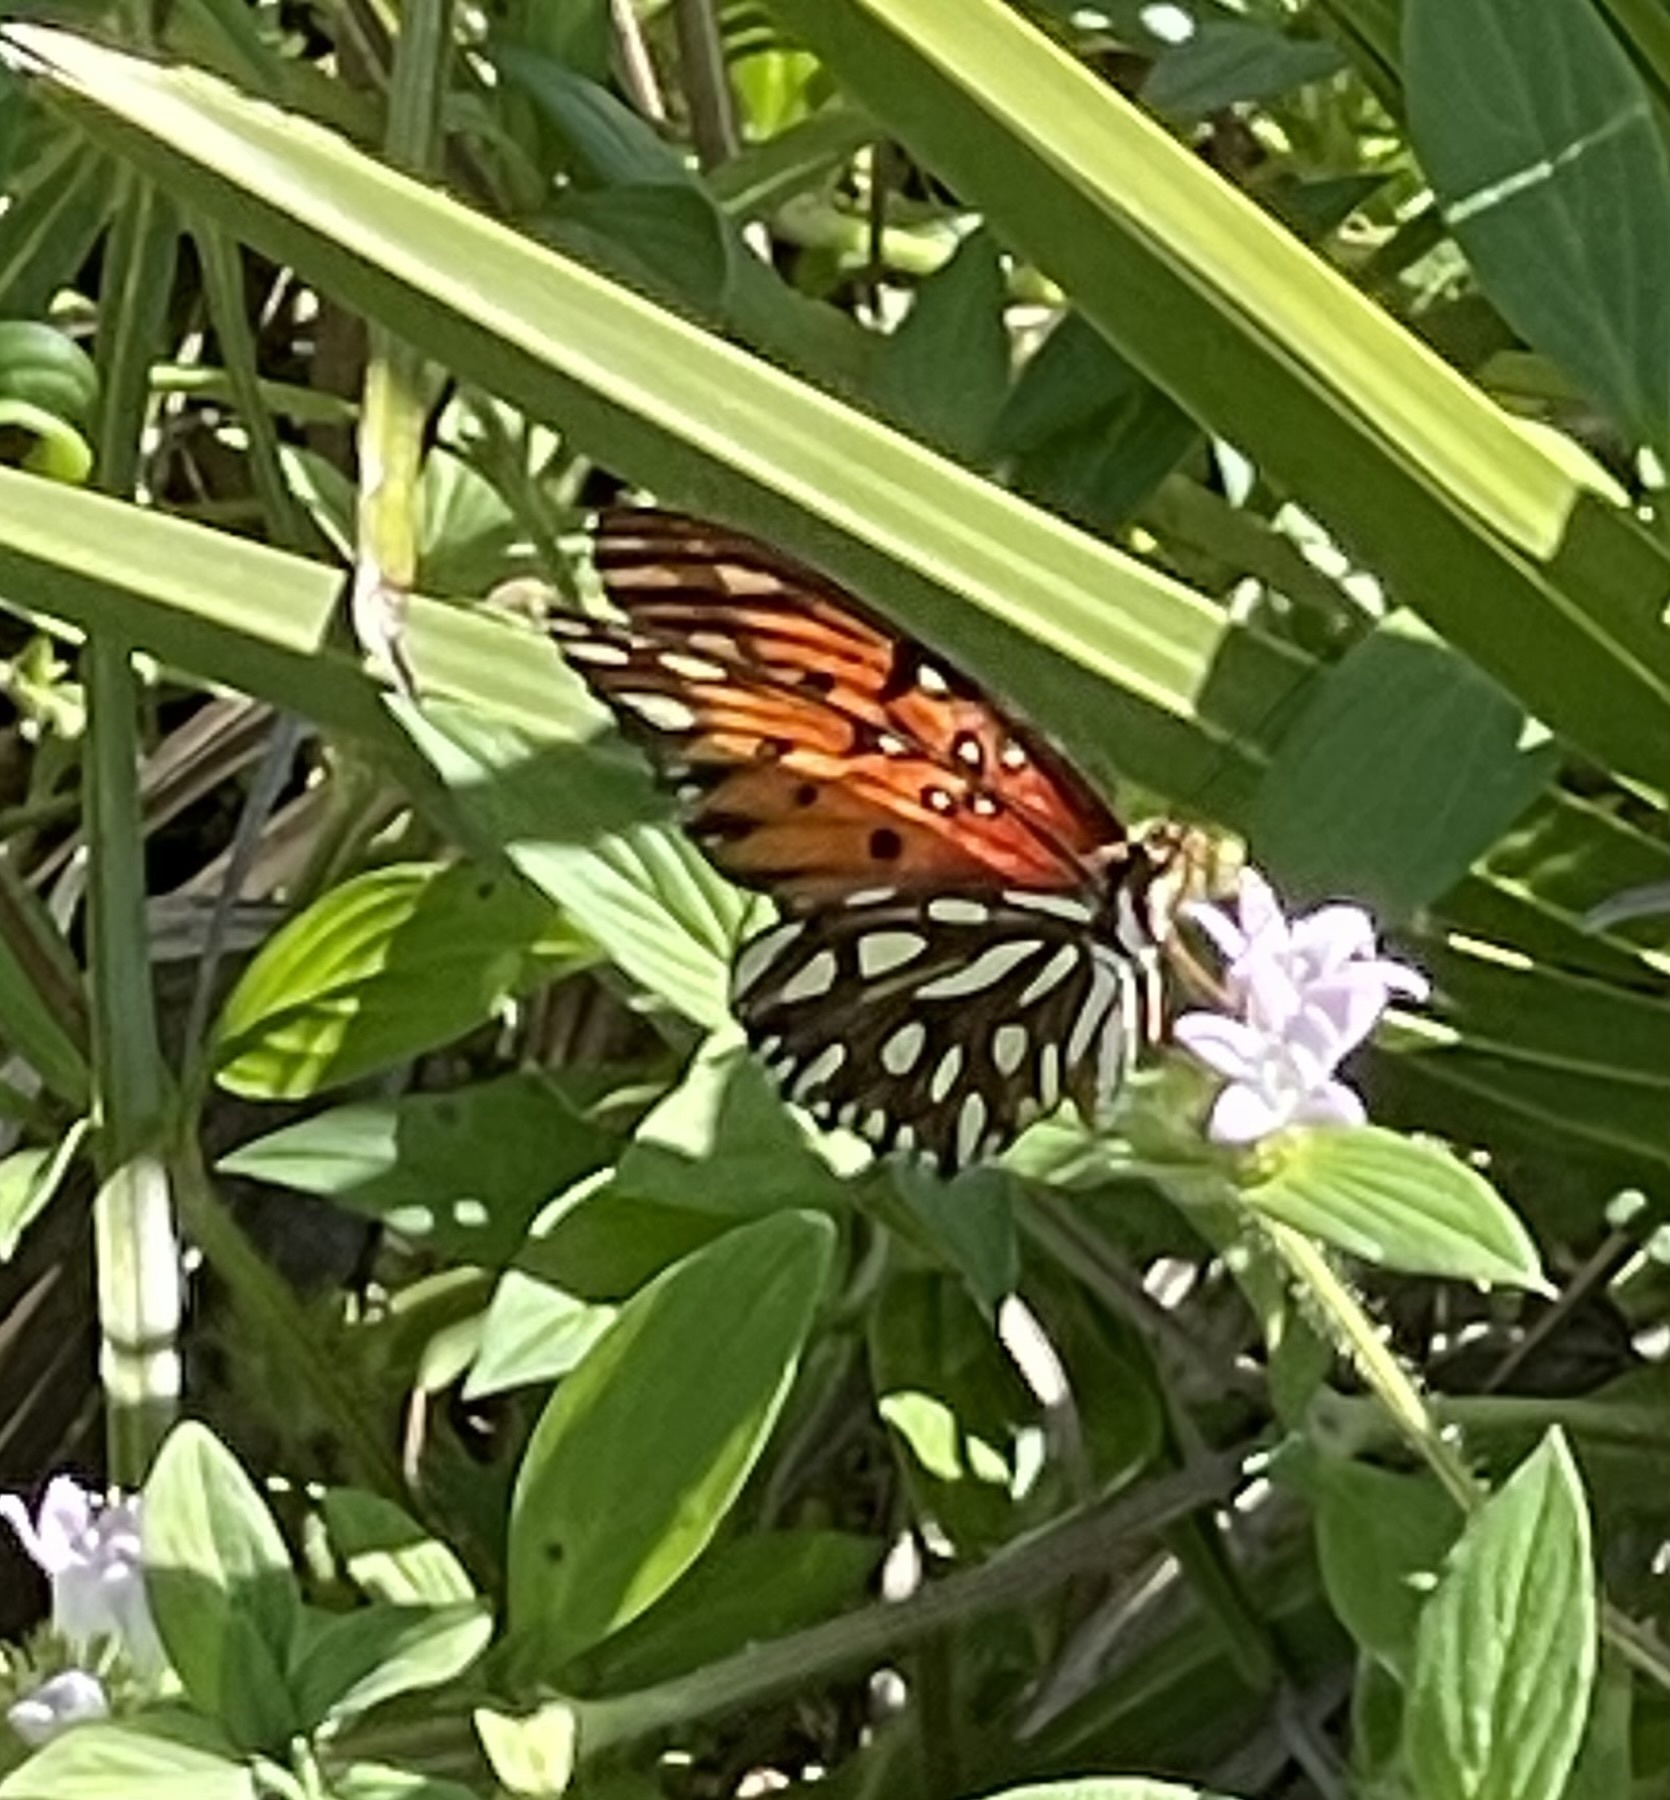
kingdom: Animalia
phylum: Arthropoda
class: Insecta
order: Lepidoptera
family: Nymphalidae
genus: Dione
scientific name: Dione vanillae
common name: Gulf fritillary
